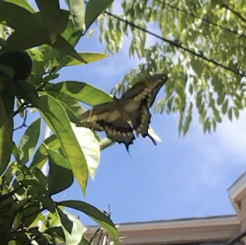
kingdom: Animalia
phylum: Arthropoda
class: Insecta
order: Lepidoptera
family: Papilionidae
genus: Papilio
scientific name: Papilio rumiko
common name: Western giant swallowtail
